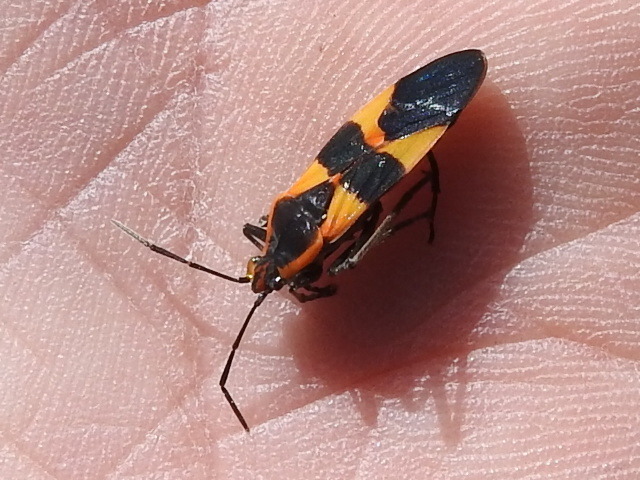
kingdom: Animalia
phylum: Arthropoda
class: Insecta
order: Hemiptera
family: Lygaeidae
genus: Oncopeltus
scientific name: Oncopeltus fasciatus
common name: Large milkweed bug
